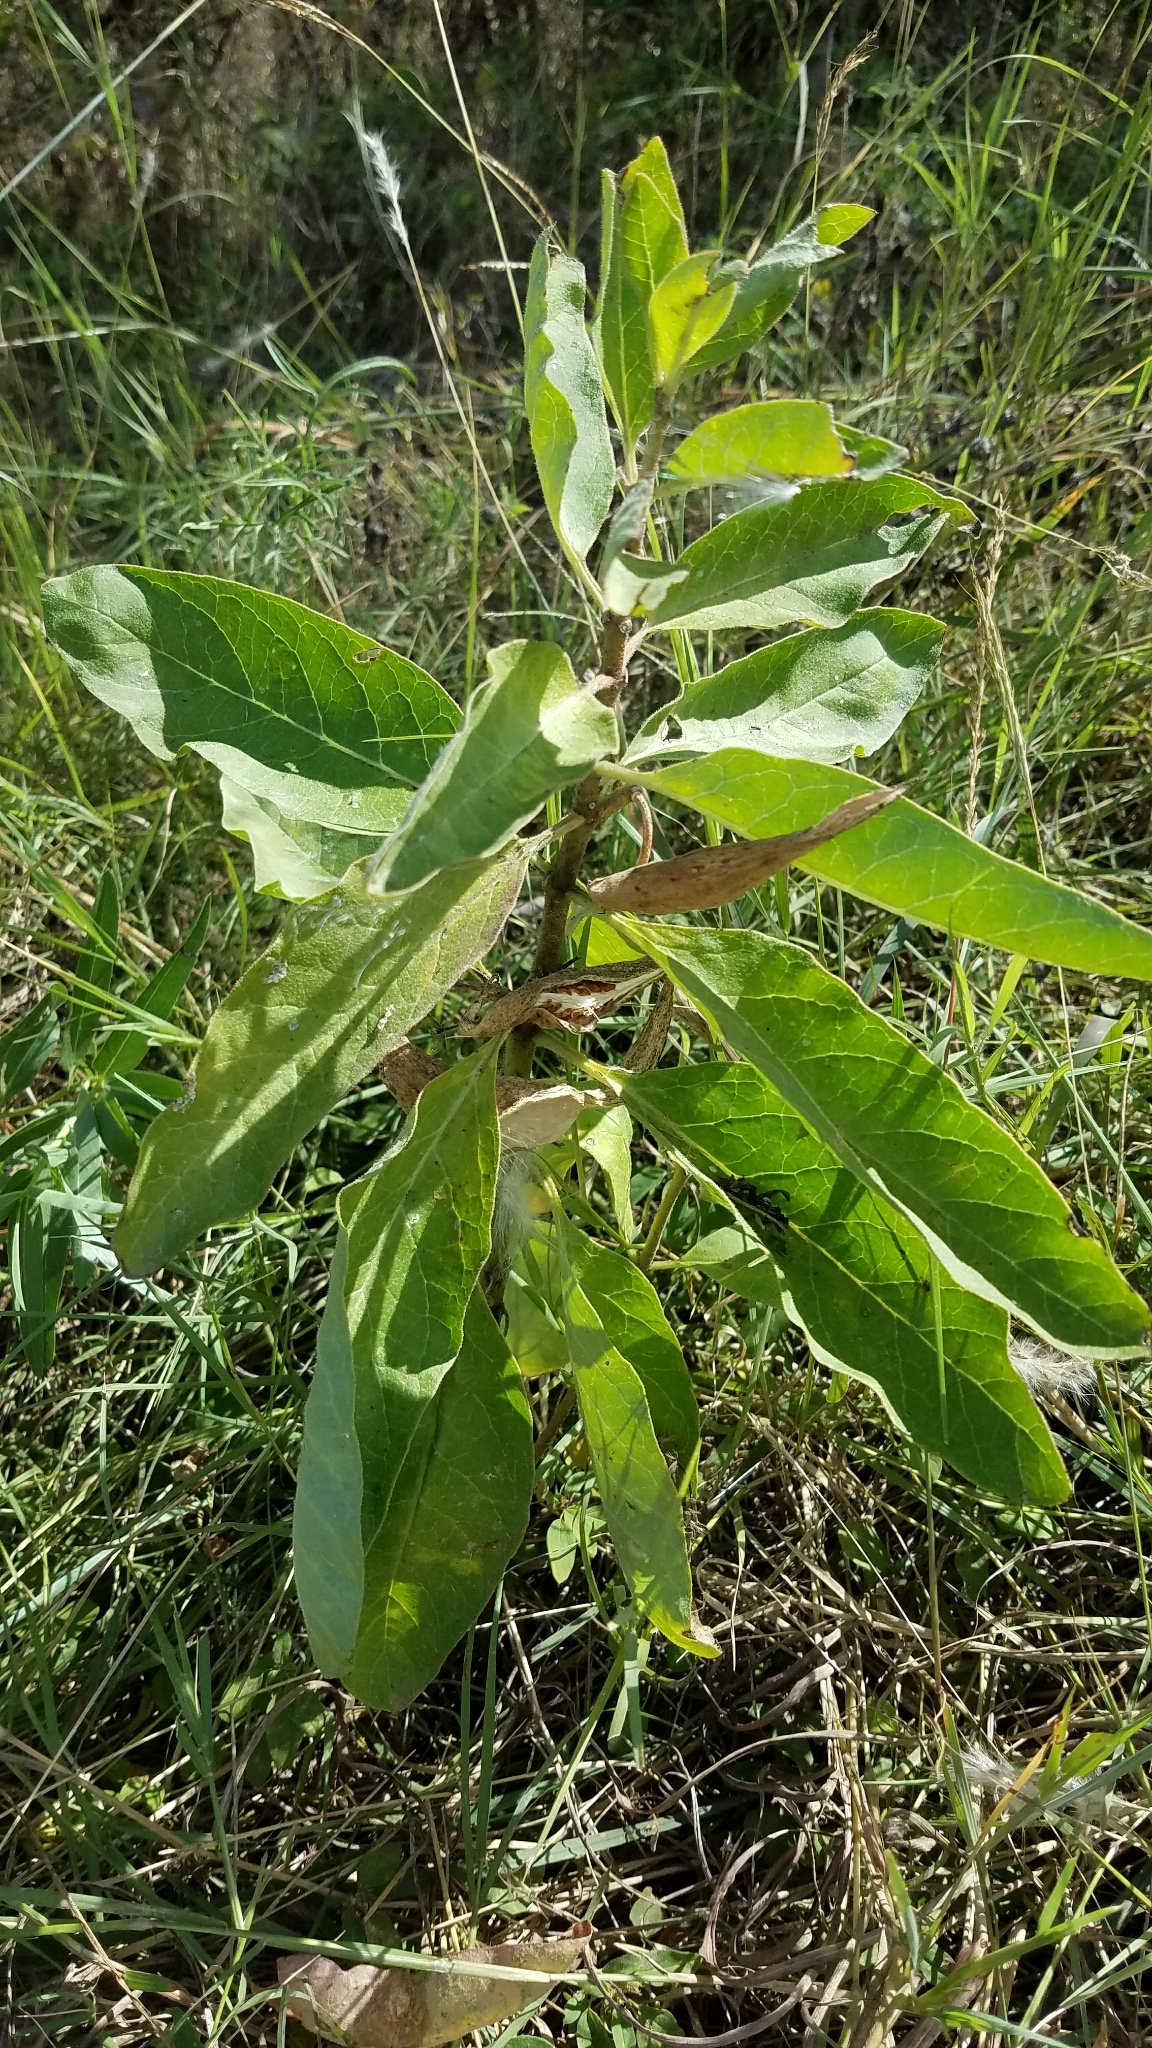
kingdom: Plantae
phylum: Tracheophyta
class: Magnoliopsida
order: Gentianales
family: Apocynaceae
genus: Asclepias
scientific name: Asclepias oenotheroides
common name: Zizotes milkweed
